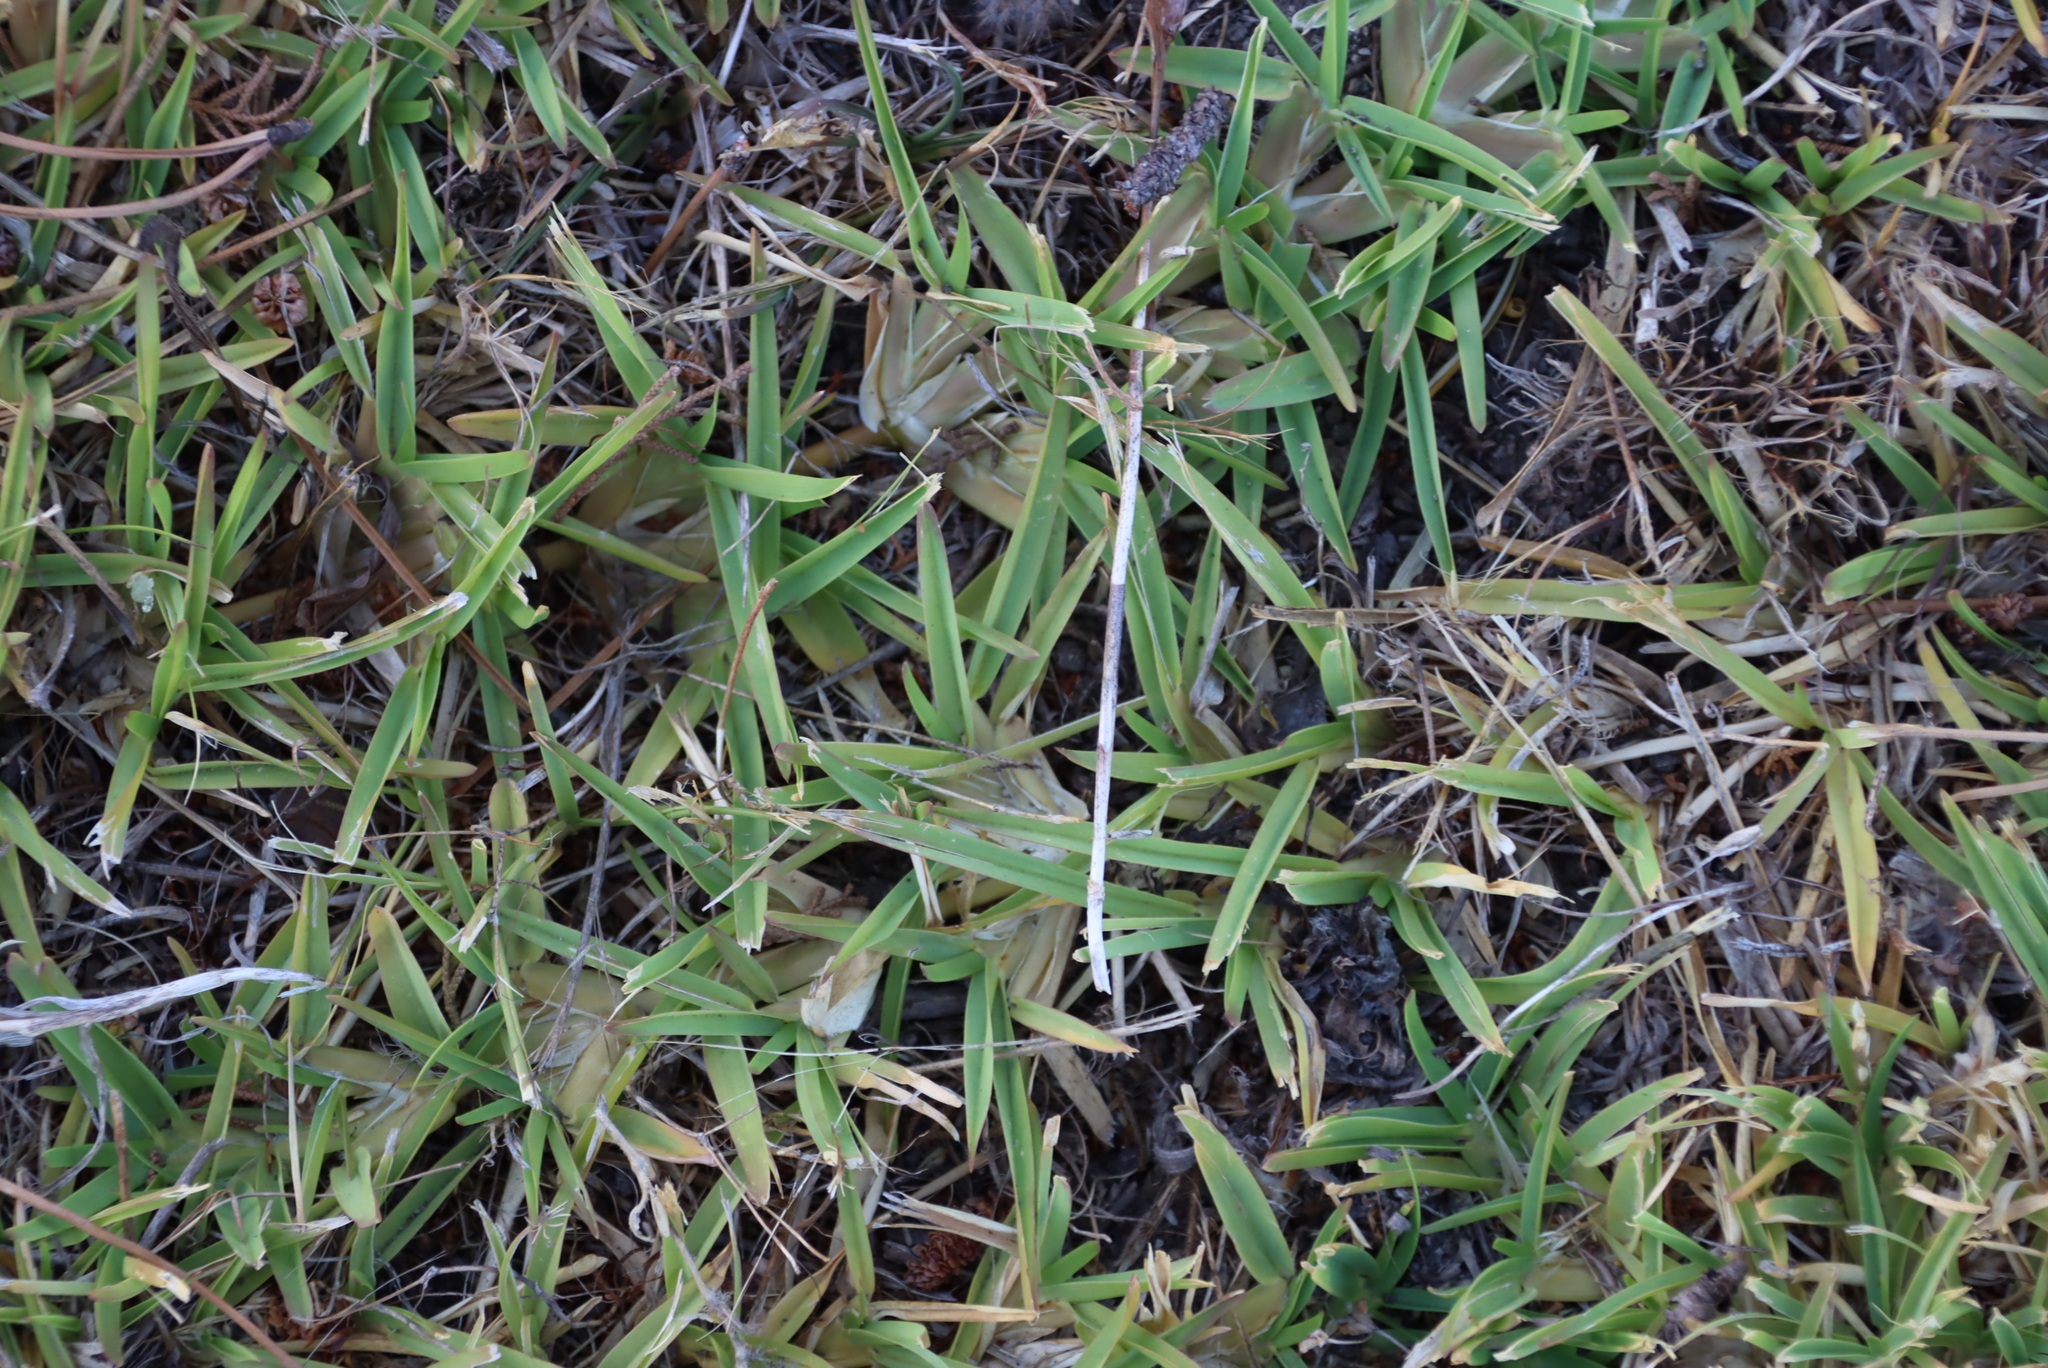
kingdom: Plantae
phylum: Tracheophyta
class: Liliopsida
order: Poales
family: Poaceae
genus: Stenotaphrum
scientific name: Stenotaphrum secundatum
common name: St. augustine grass
